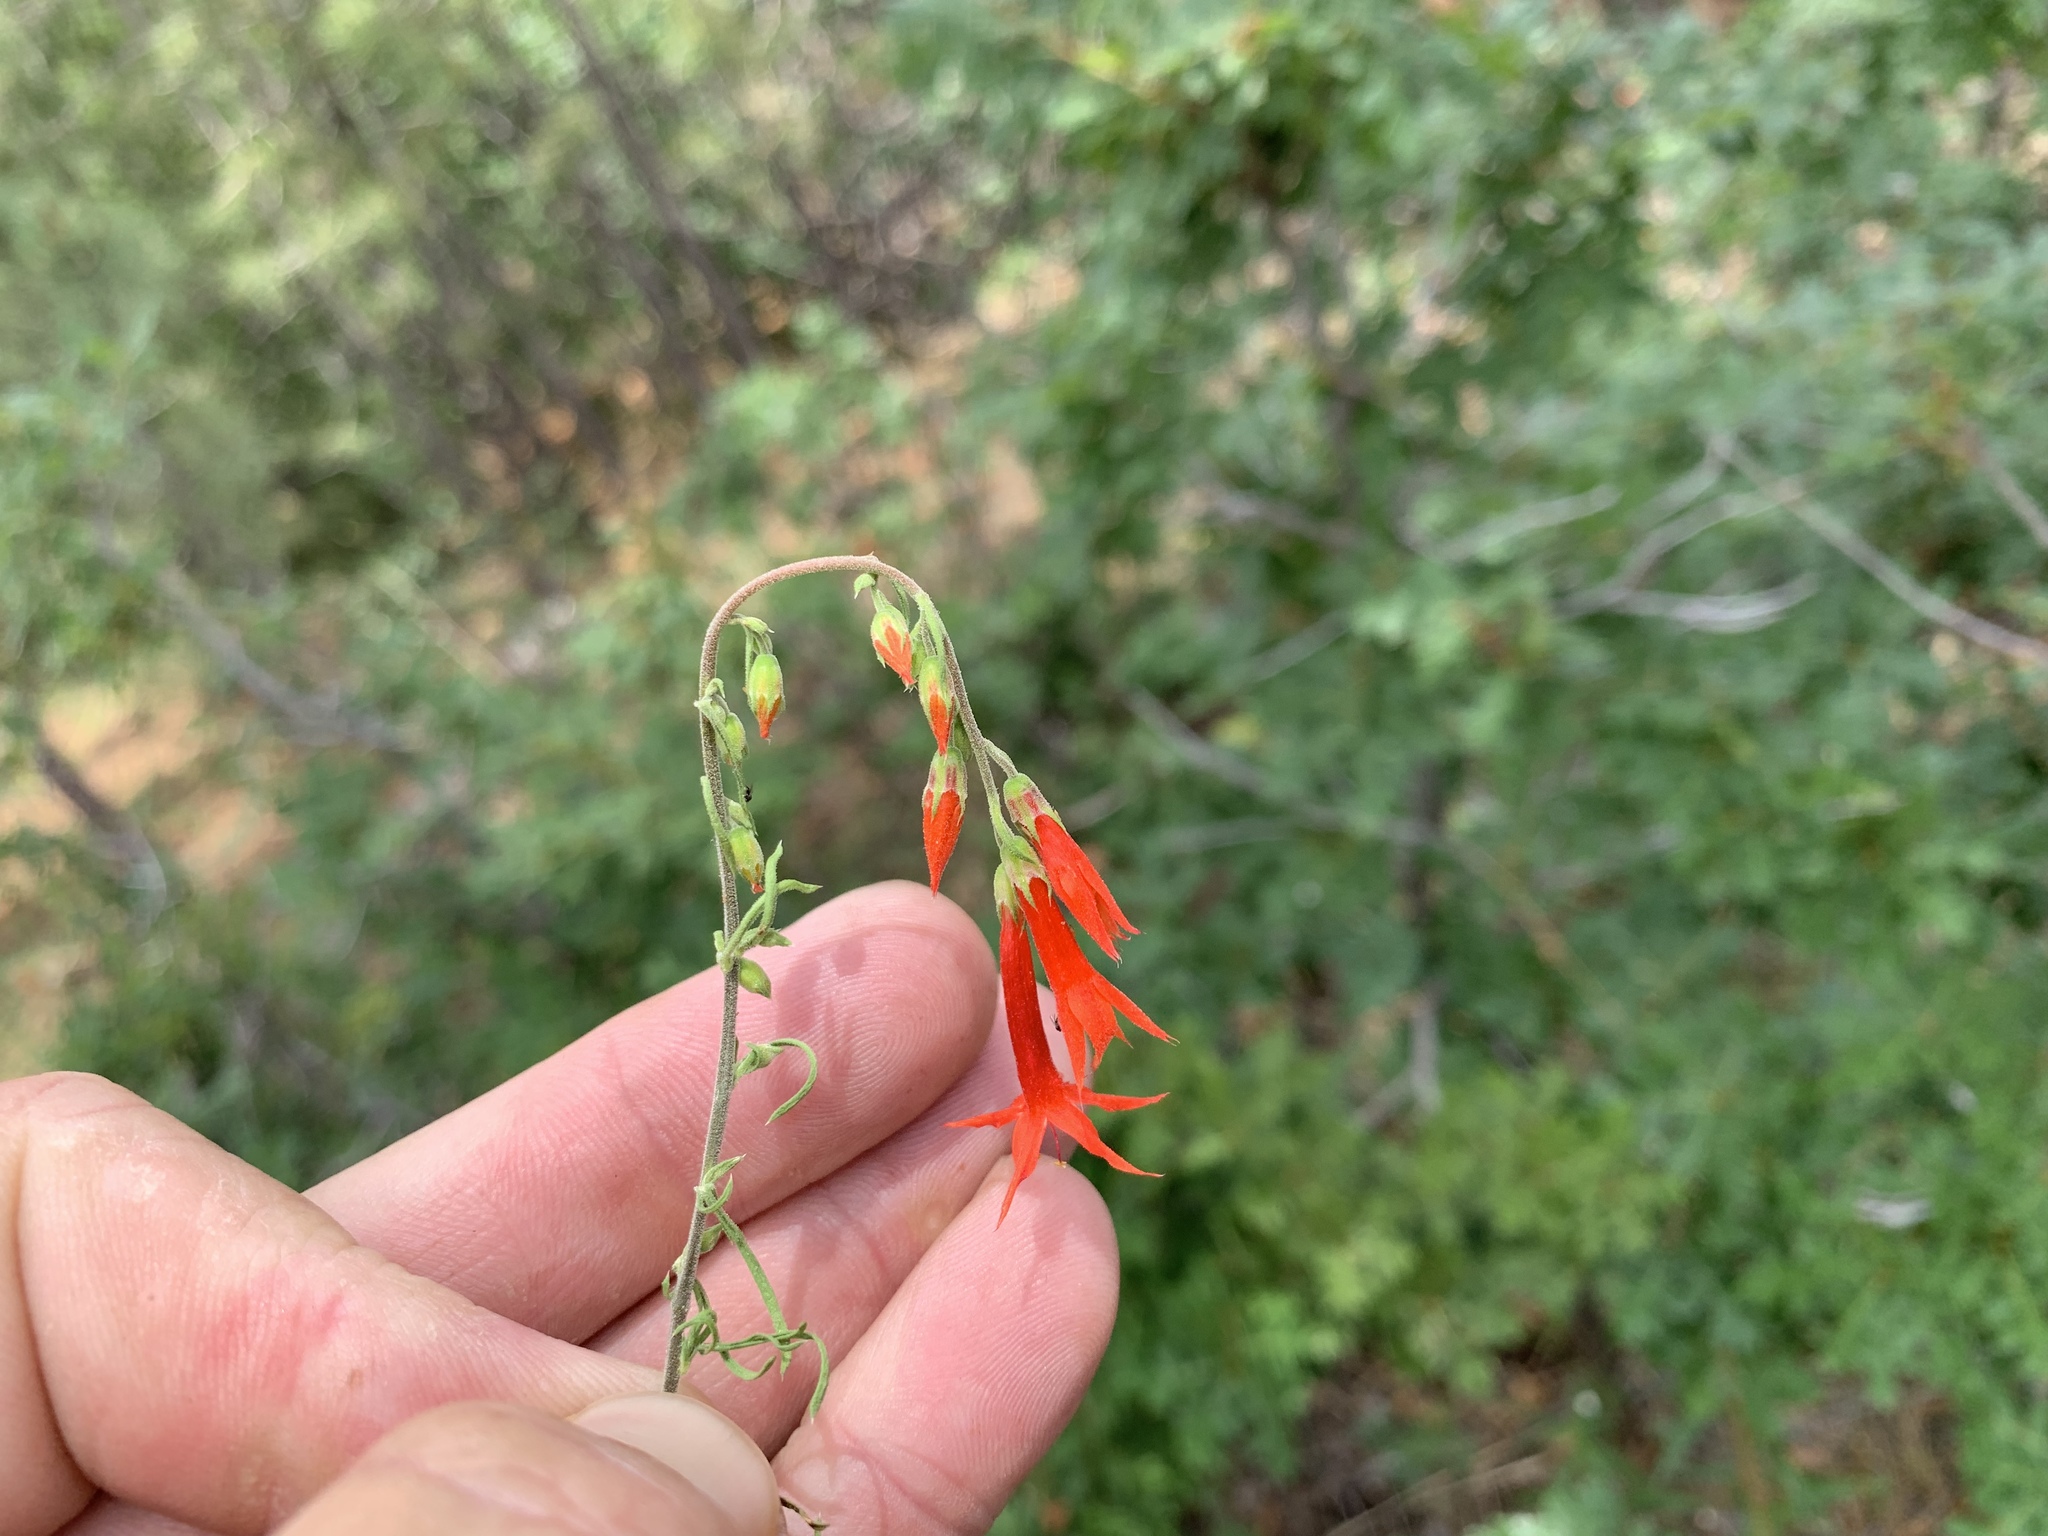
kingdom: Plantae
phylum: Tracheophyta
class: Magnoliopsida
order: Ericales
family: Polemoniaceae
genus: Ipomopsis
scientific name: Ipomopsis aggregata
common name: Scarlet gilia
